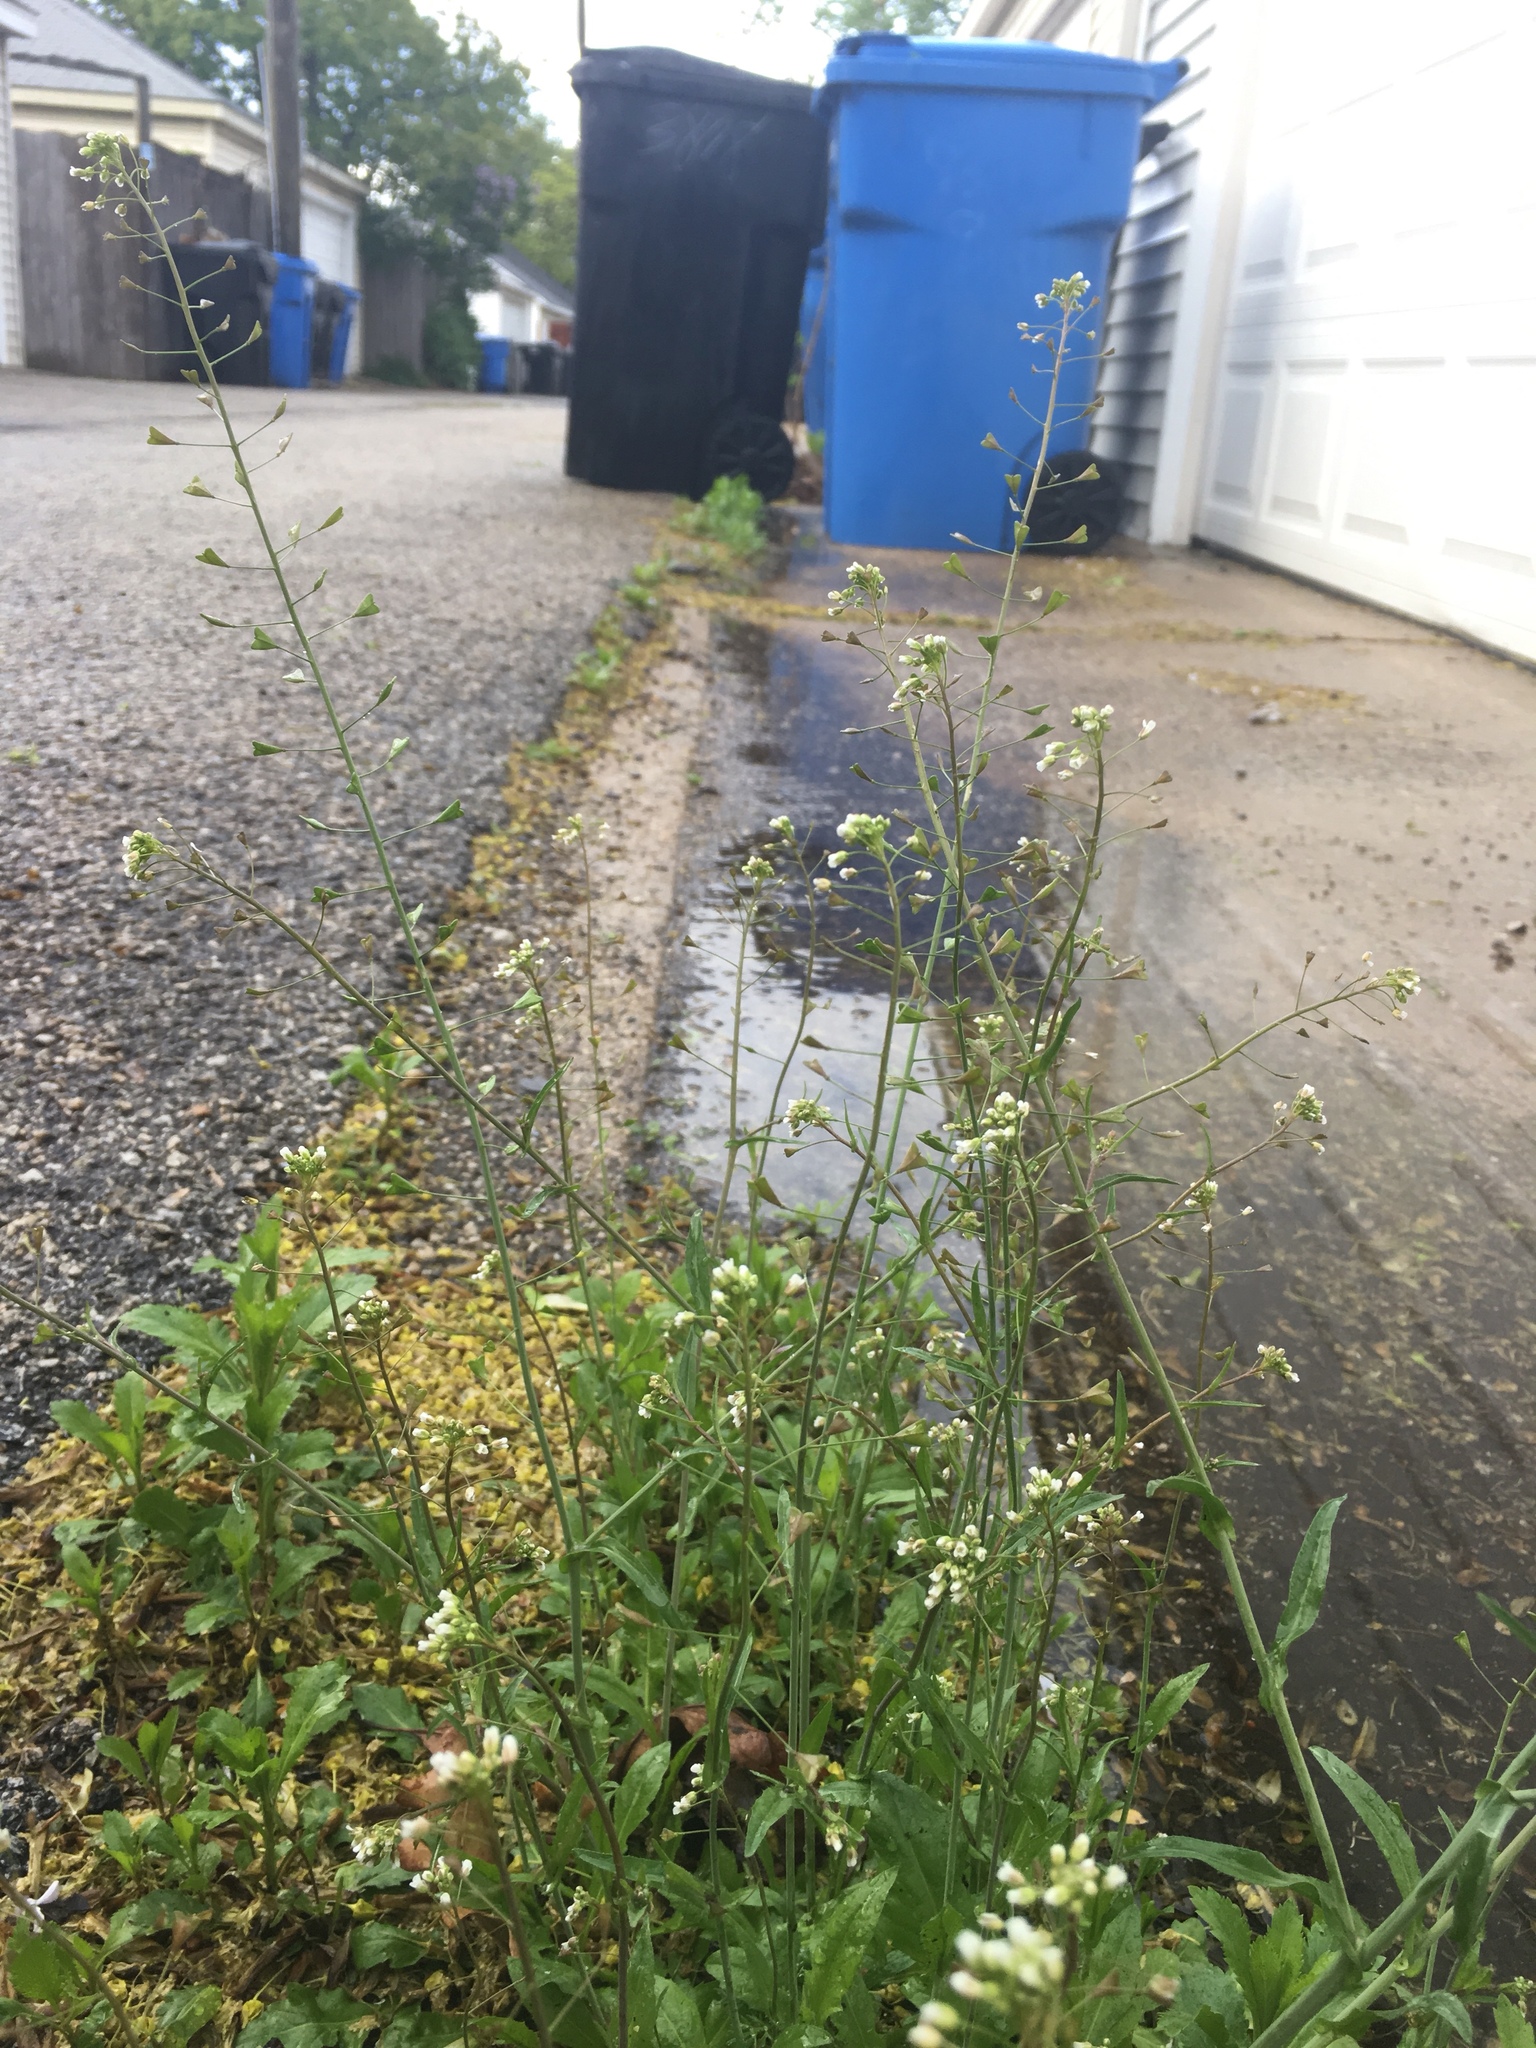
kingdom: Plantae
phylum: Tracheophyta
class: Magnoliopsida
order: Brassicales
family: Brassicaceae
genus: Capsella
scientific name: Capsella bursa-pastoris
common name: Shepherd's purse
